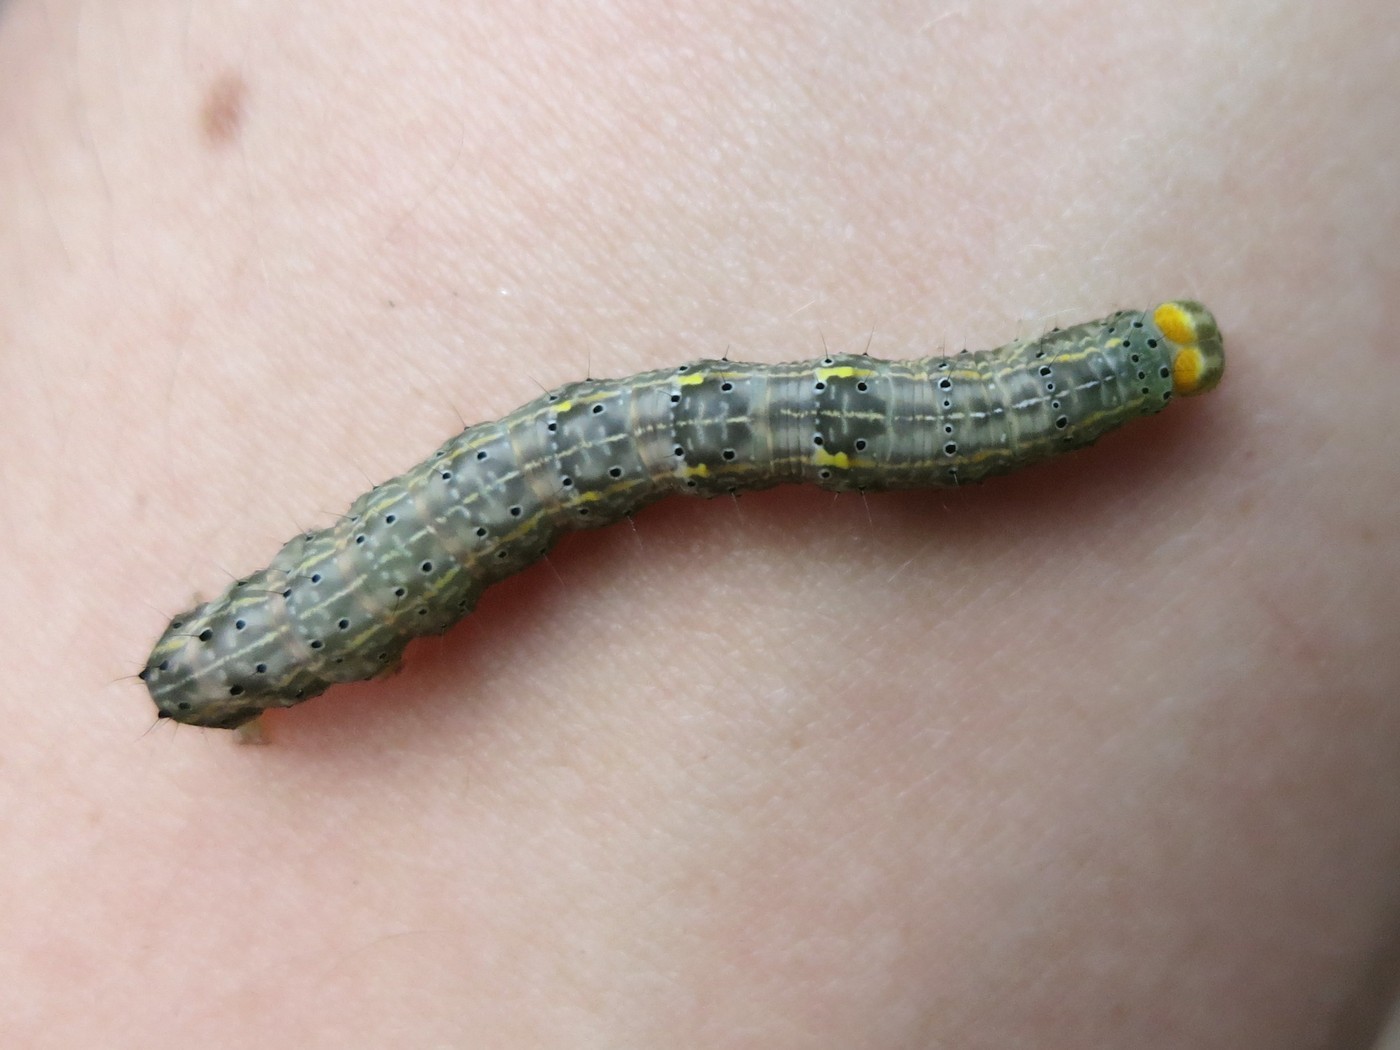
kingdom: Animalia
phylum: Arthropoda
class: Insecta
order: Lepidoptera
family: Erebidae
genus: Rusicada
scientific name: Rusicada privata
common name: Hibiscus leaf caterpillar moth
